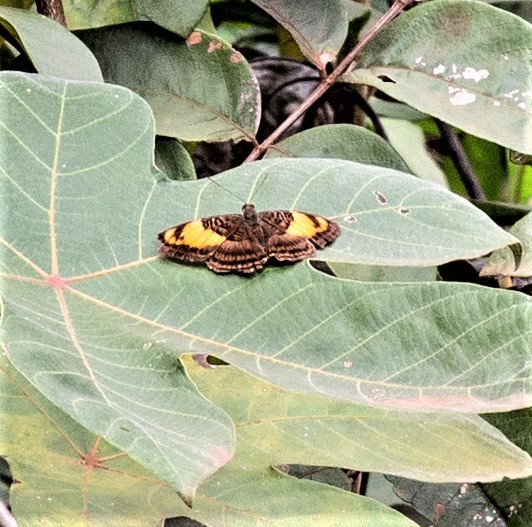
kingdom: Animalia
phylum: Arthropoda
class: Insecta
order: Lepidoptera
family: Nymphalidae
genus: Limenitis
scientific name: Limenitis mesentina
